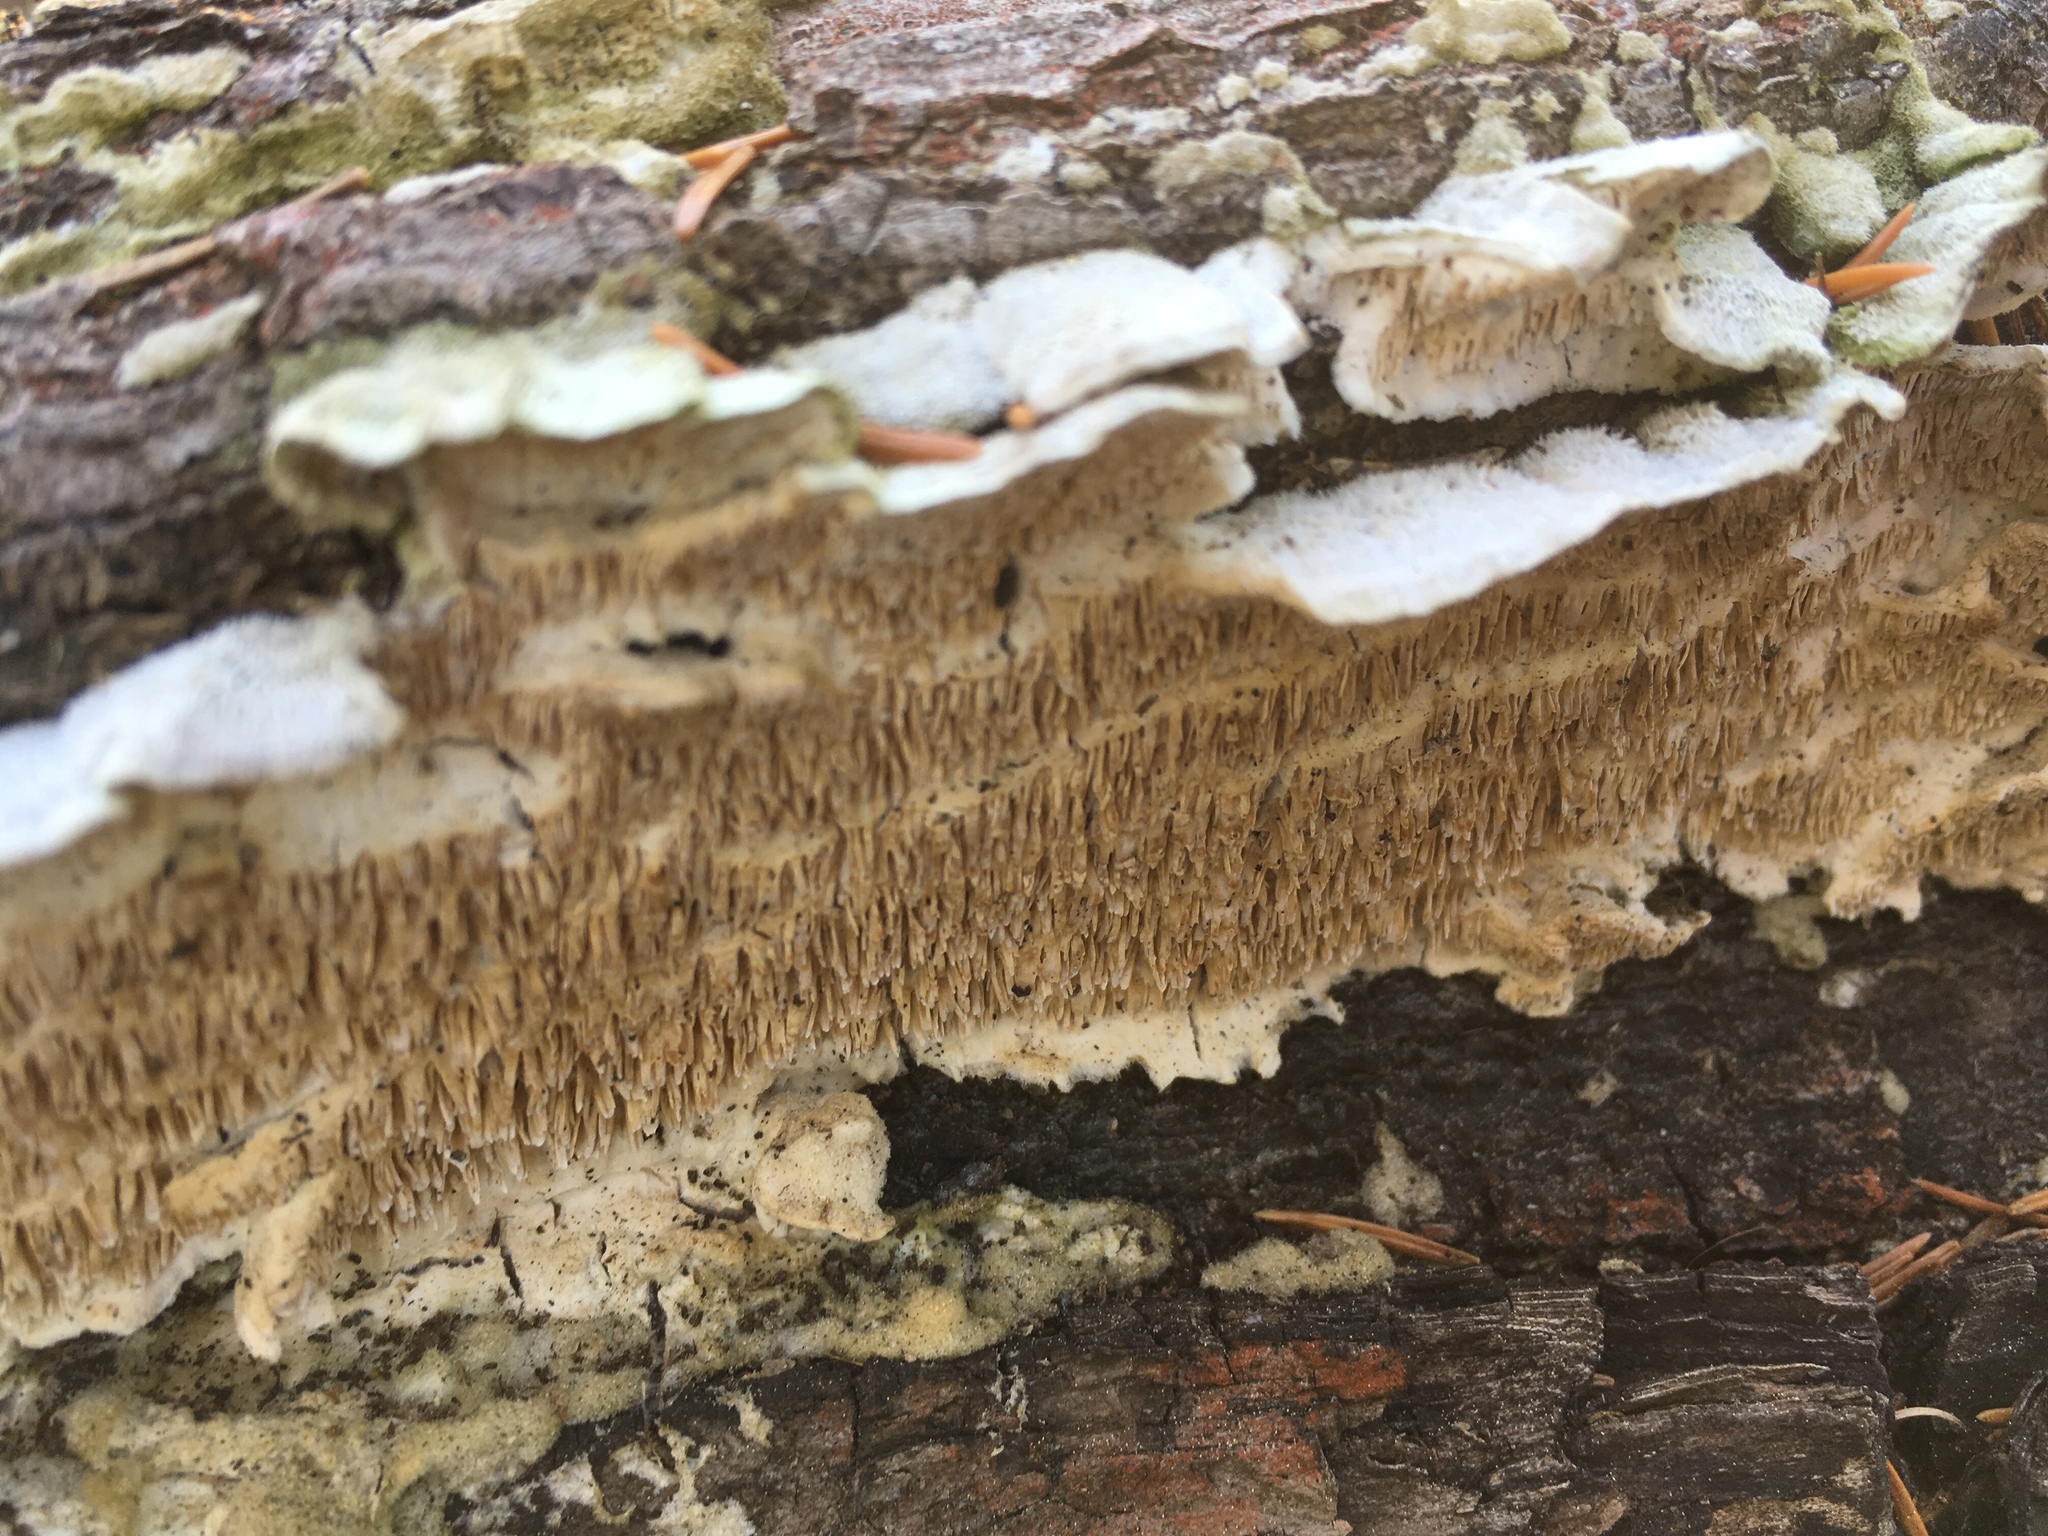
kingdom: Fungi
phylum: Basidiomycota
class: Agaricomycetes
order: Polyporales
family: Irpicaceae
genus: Irpex
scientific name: Irpex lacteus
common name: Milk-white toothed polypore
